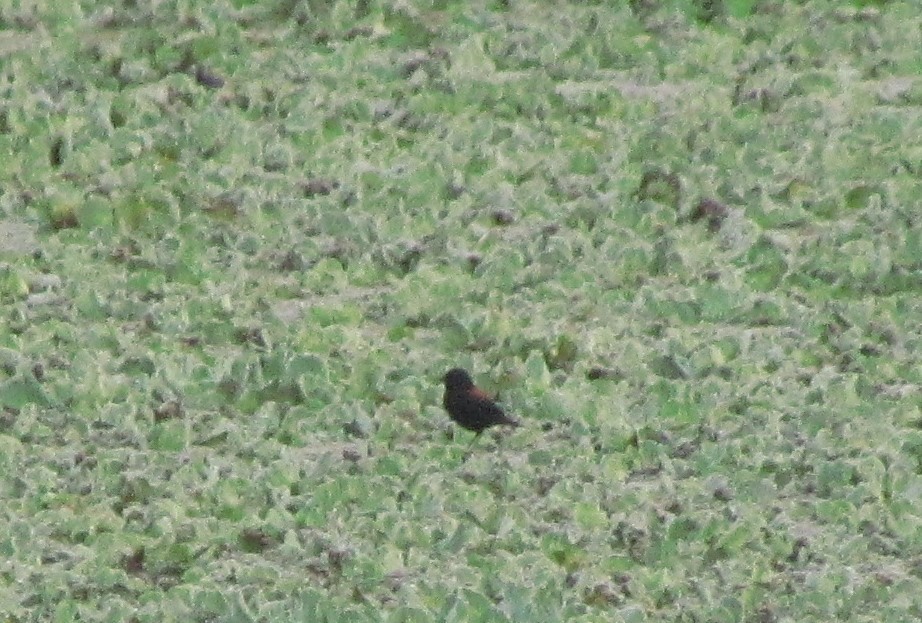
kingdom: Animalia
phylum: Chordata
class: Aves
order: Passeriformes
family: Tyrannidae
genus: Lessonia
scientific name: Lessonia rufa
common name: Austral negrito
